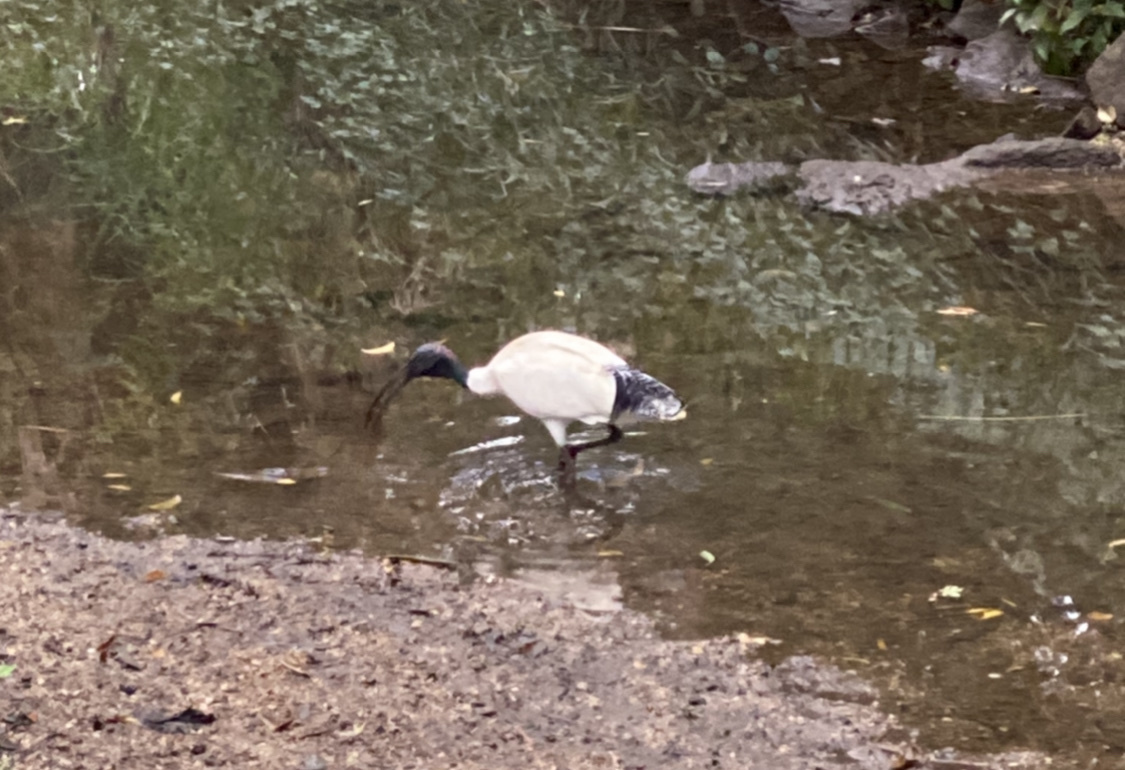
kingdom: Animalia
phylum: Chordata
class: Aves
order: Pelecaniformes
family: Threskiornithidae
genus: Threskiornis
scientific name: Threskiornis molucca
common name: Australian white ibis
